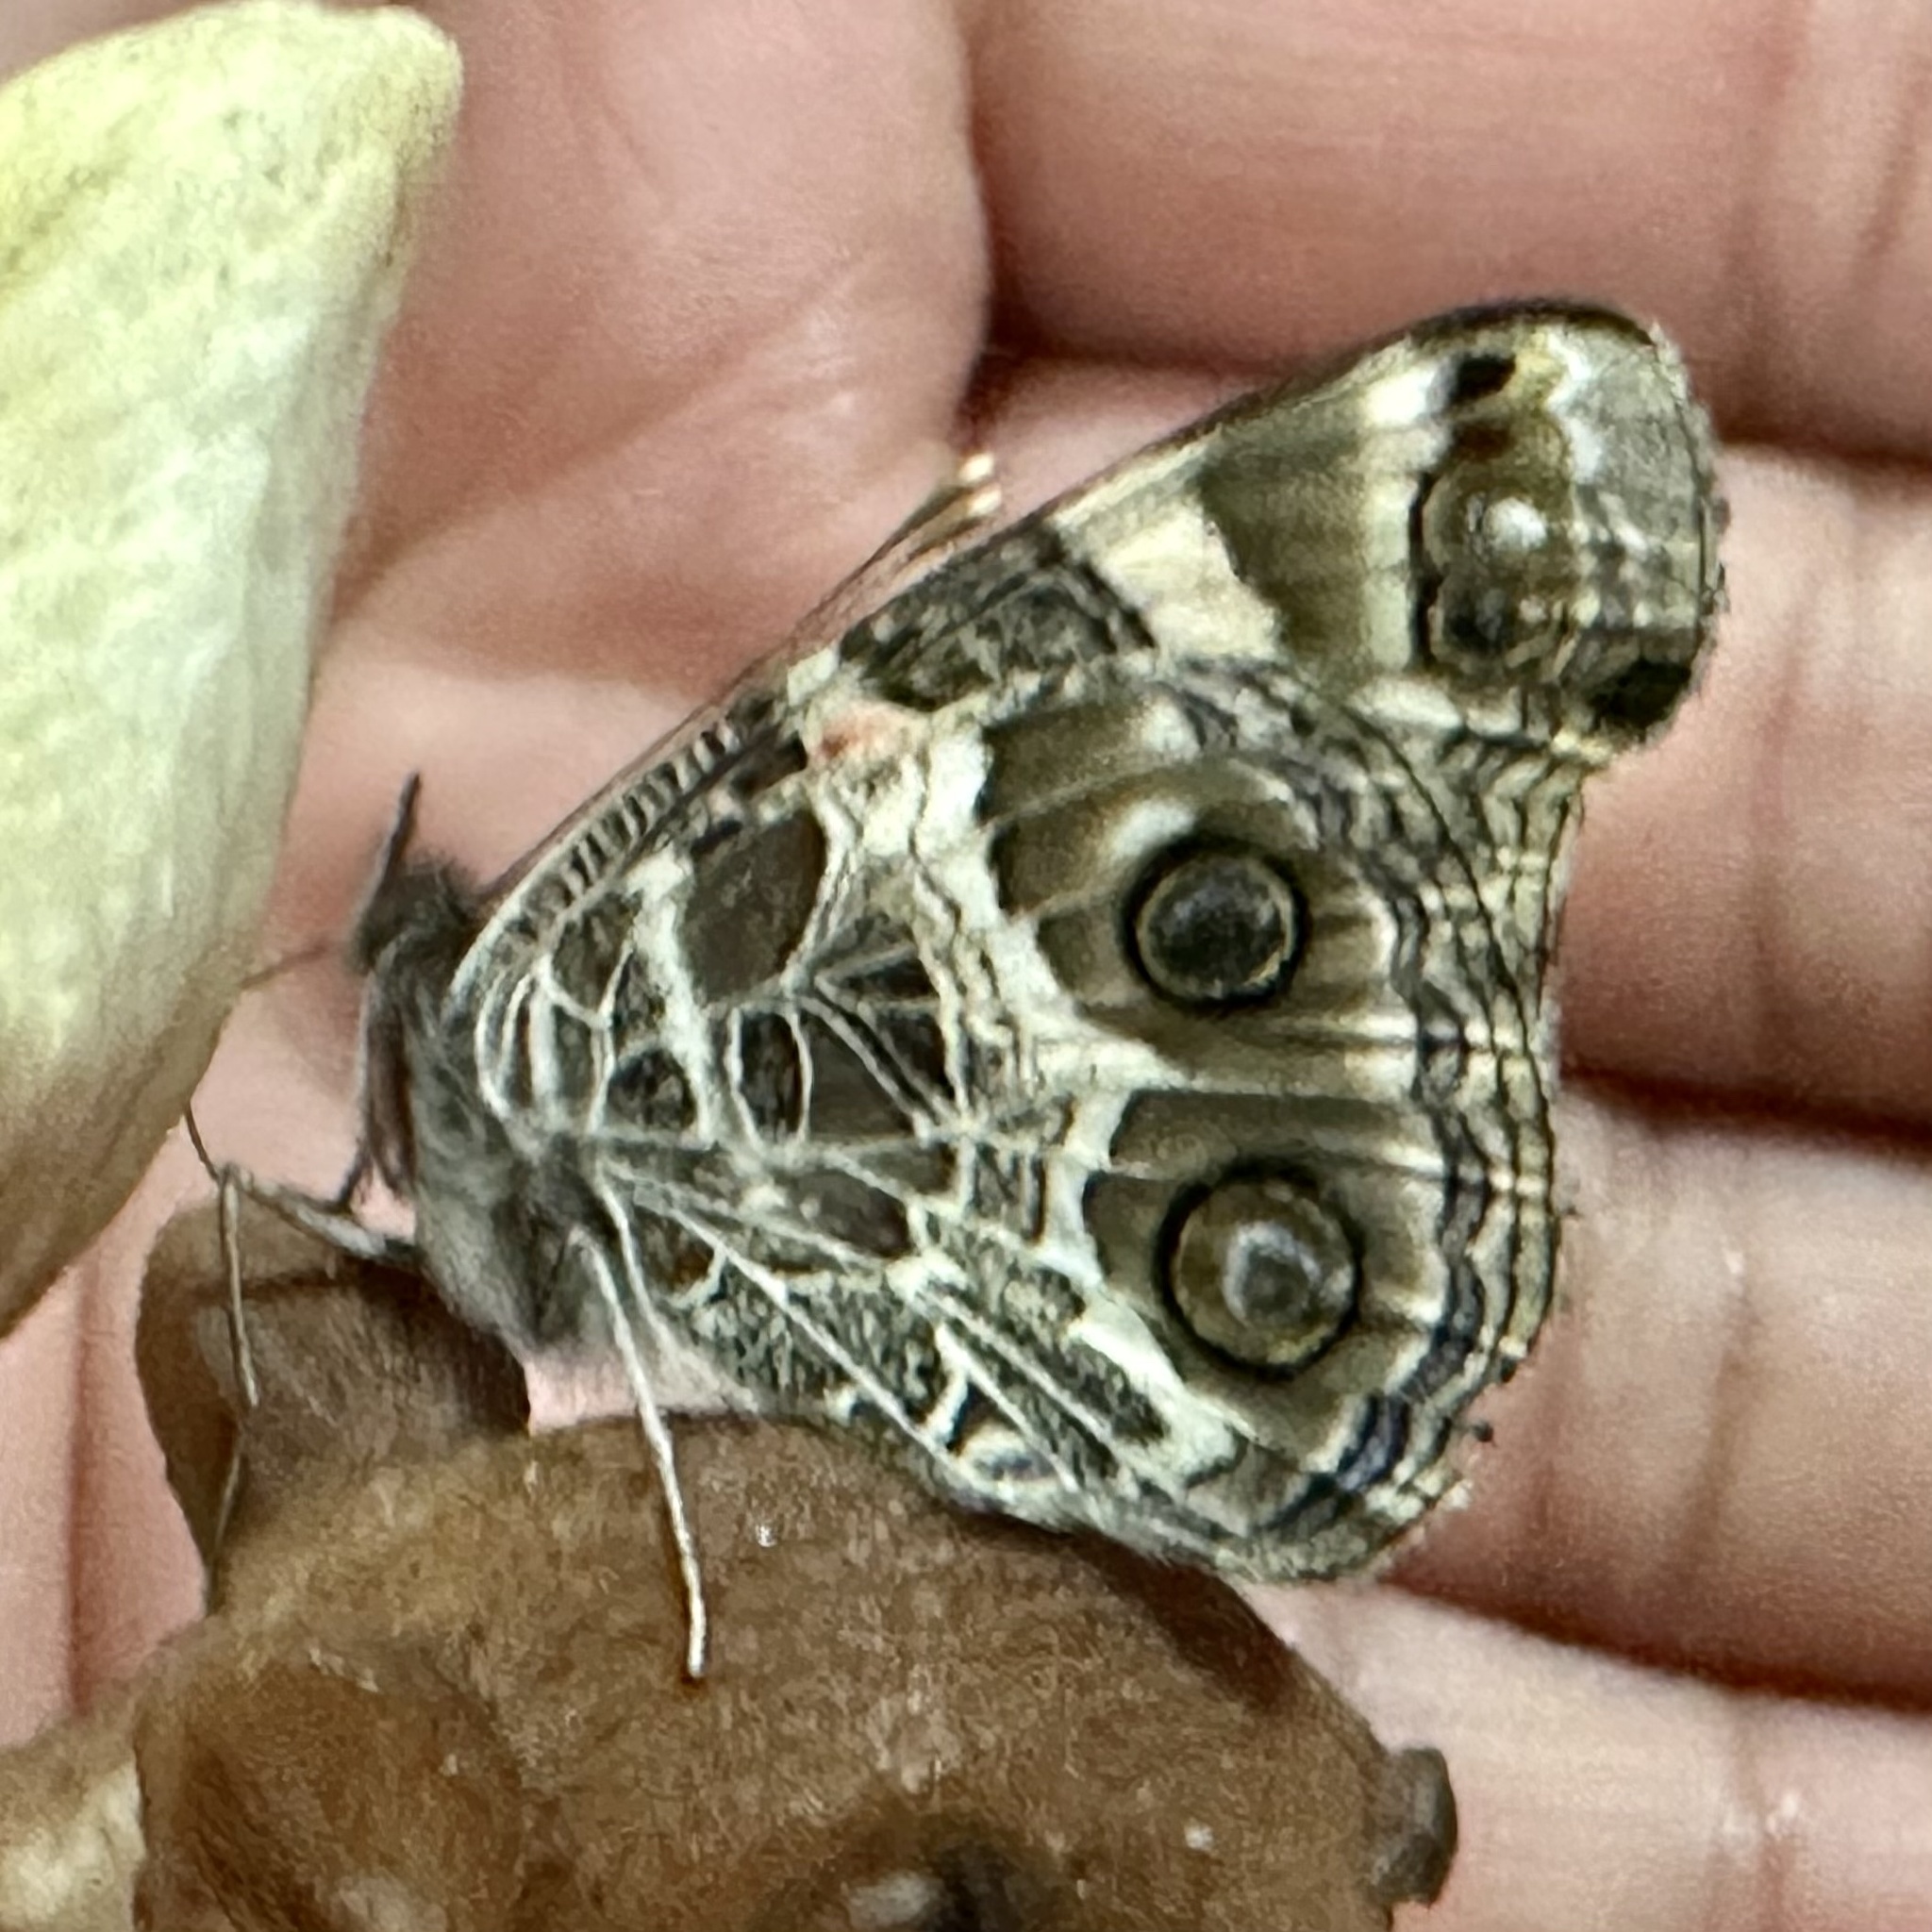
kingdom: Animalia
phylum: Arthropoda
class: Insecta
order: Lepidoptera
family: Nymphalidae
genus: Vanessa
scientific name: Vanessa virginiensis
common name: American lady
